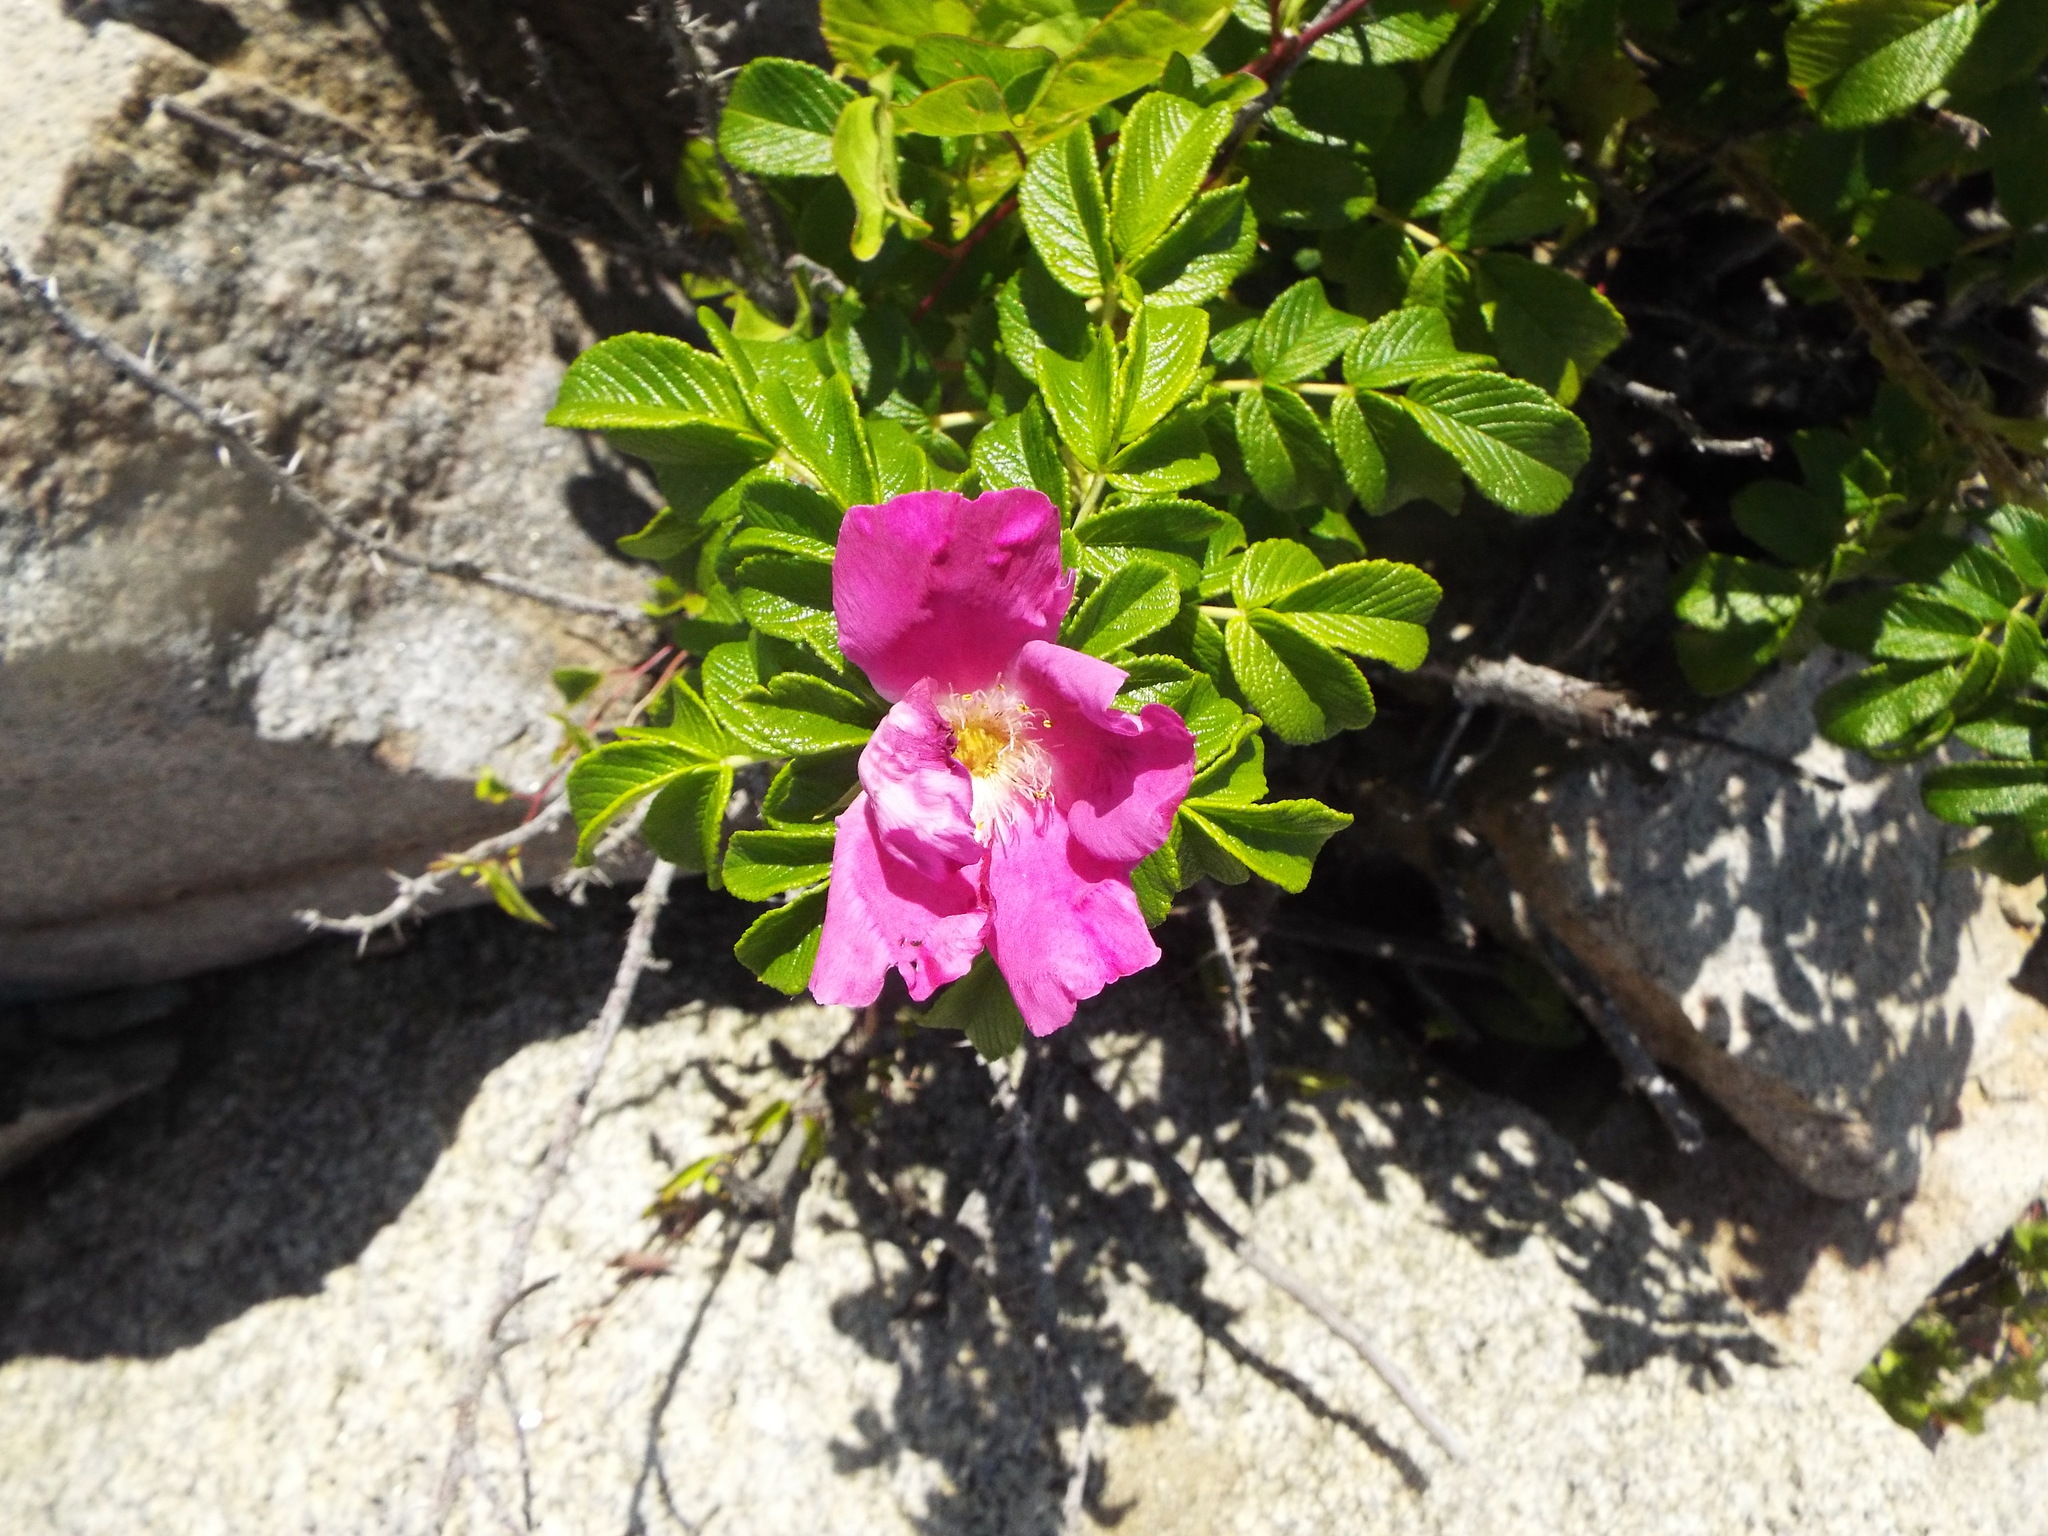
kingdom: Plantae
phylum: Tracheophyta
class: Magnoliopsida
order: Rosales
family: Rosaceae
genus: Rosa
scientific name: Rosa rugosa
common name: Japanese rose
